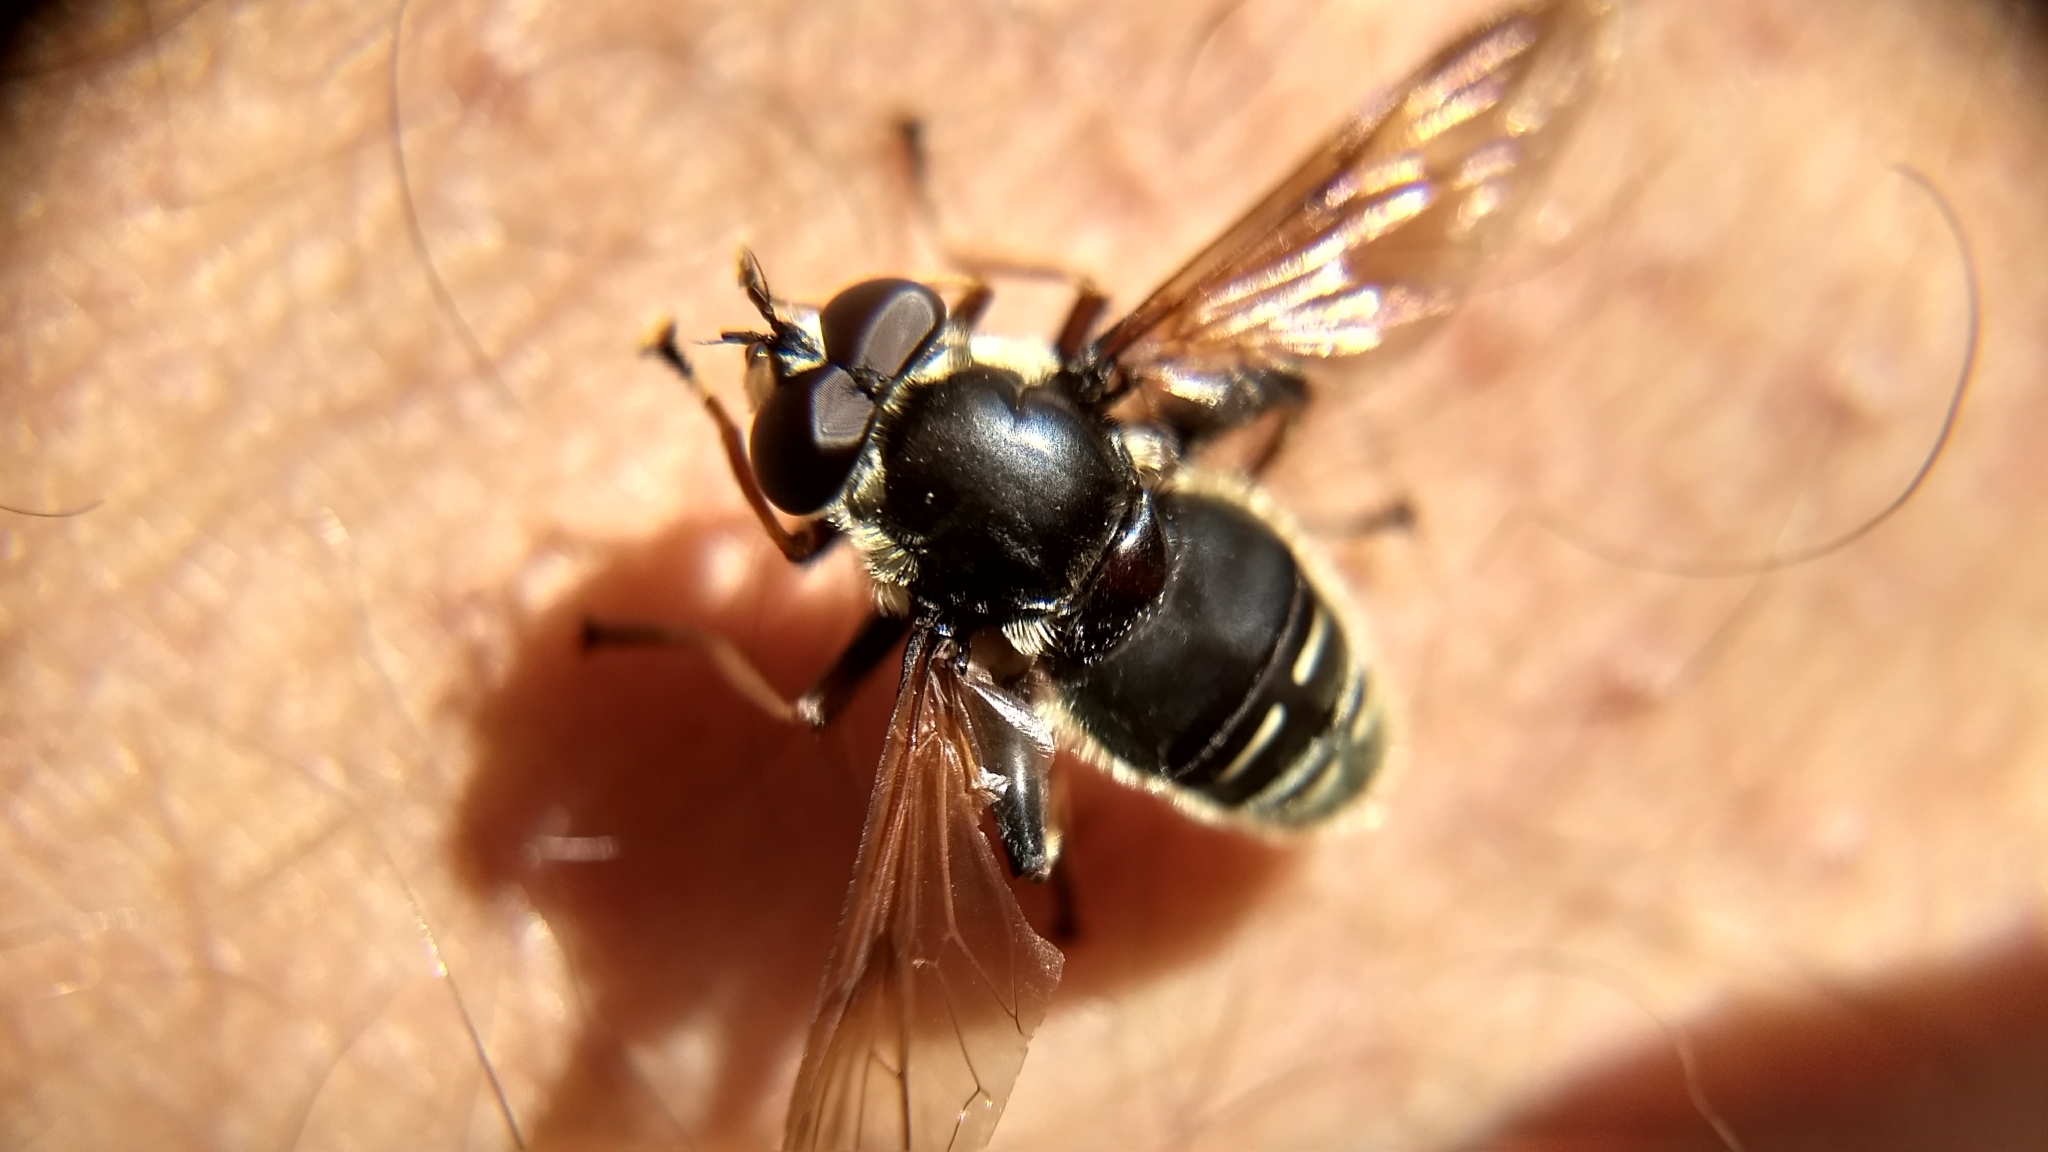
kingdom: Animalia
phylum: Arthropoda
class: Insecta
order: Diptera
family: Syrphidae
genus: Sericomyia
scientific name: Sericomyia militaris
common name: Narrow-banded pond fly
